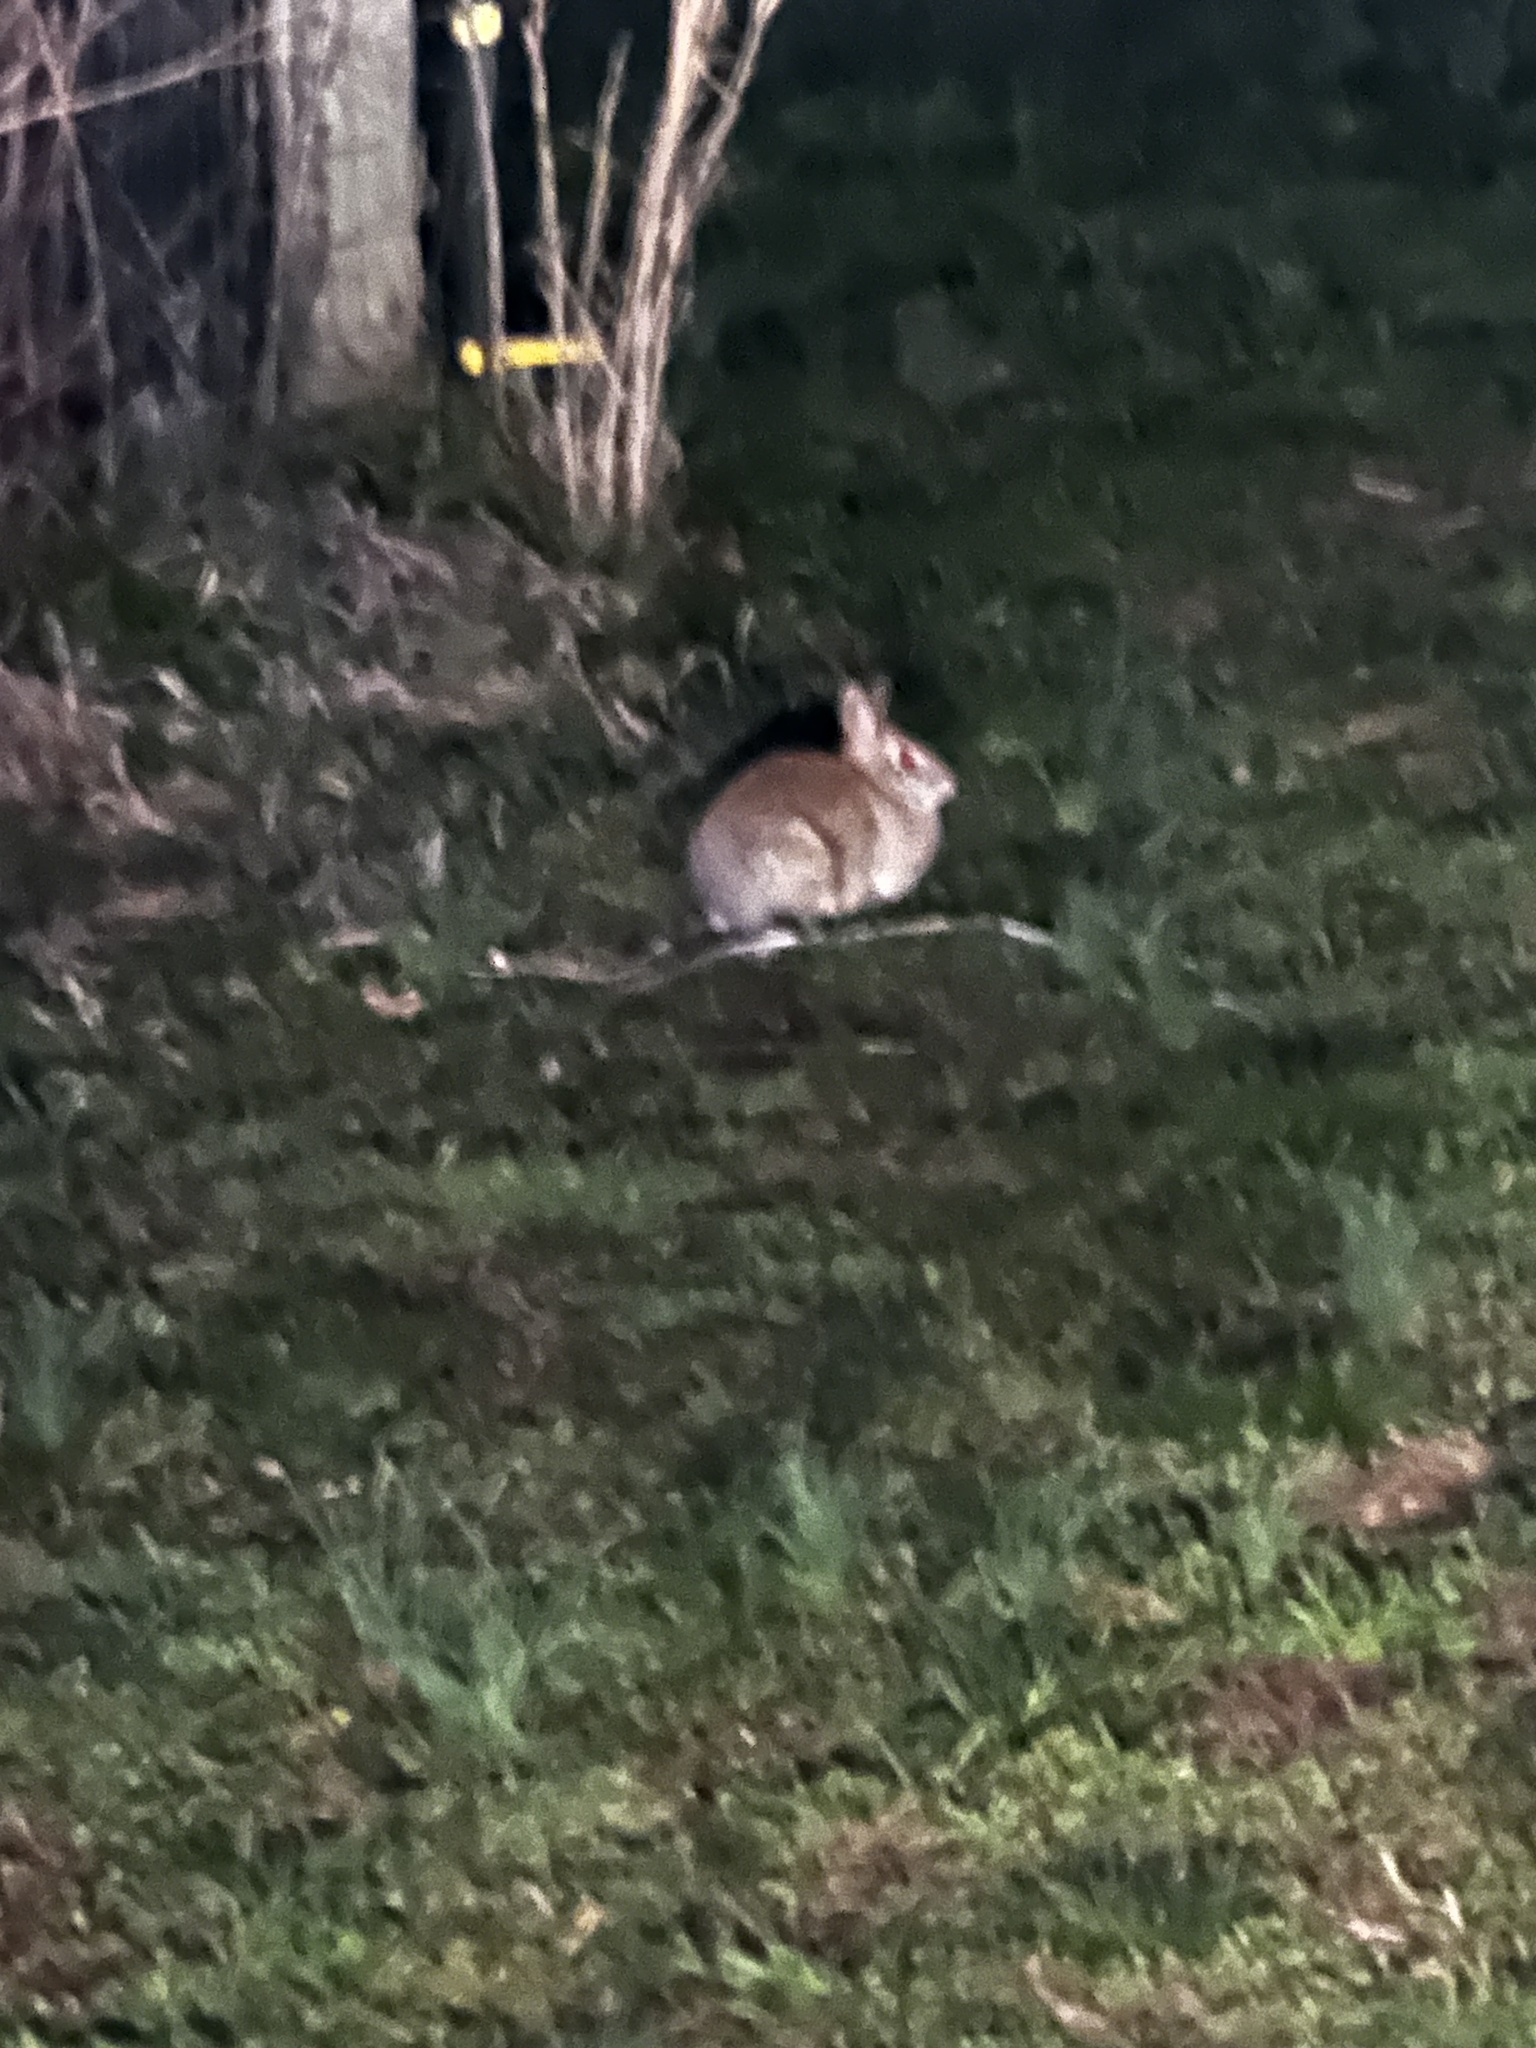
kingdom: Animalia
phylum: Chordata
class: Mammalia
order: Lagomorpha
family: Leporidae
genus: Sylvilagus
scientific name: Sylvilagus floridanus
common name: Eastern cottontail
